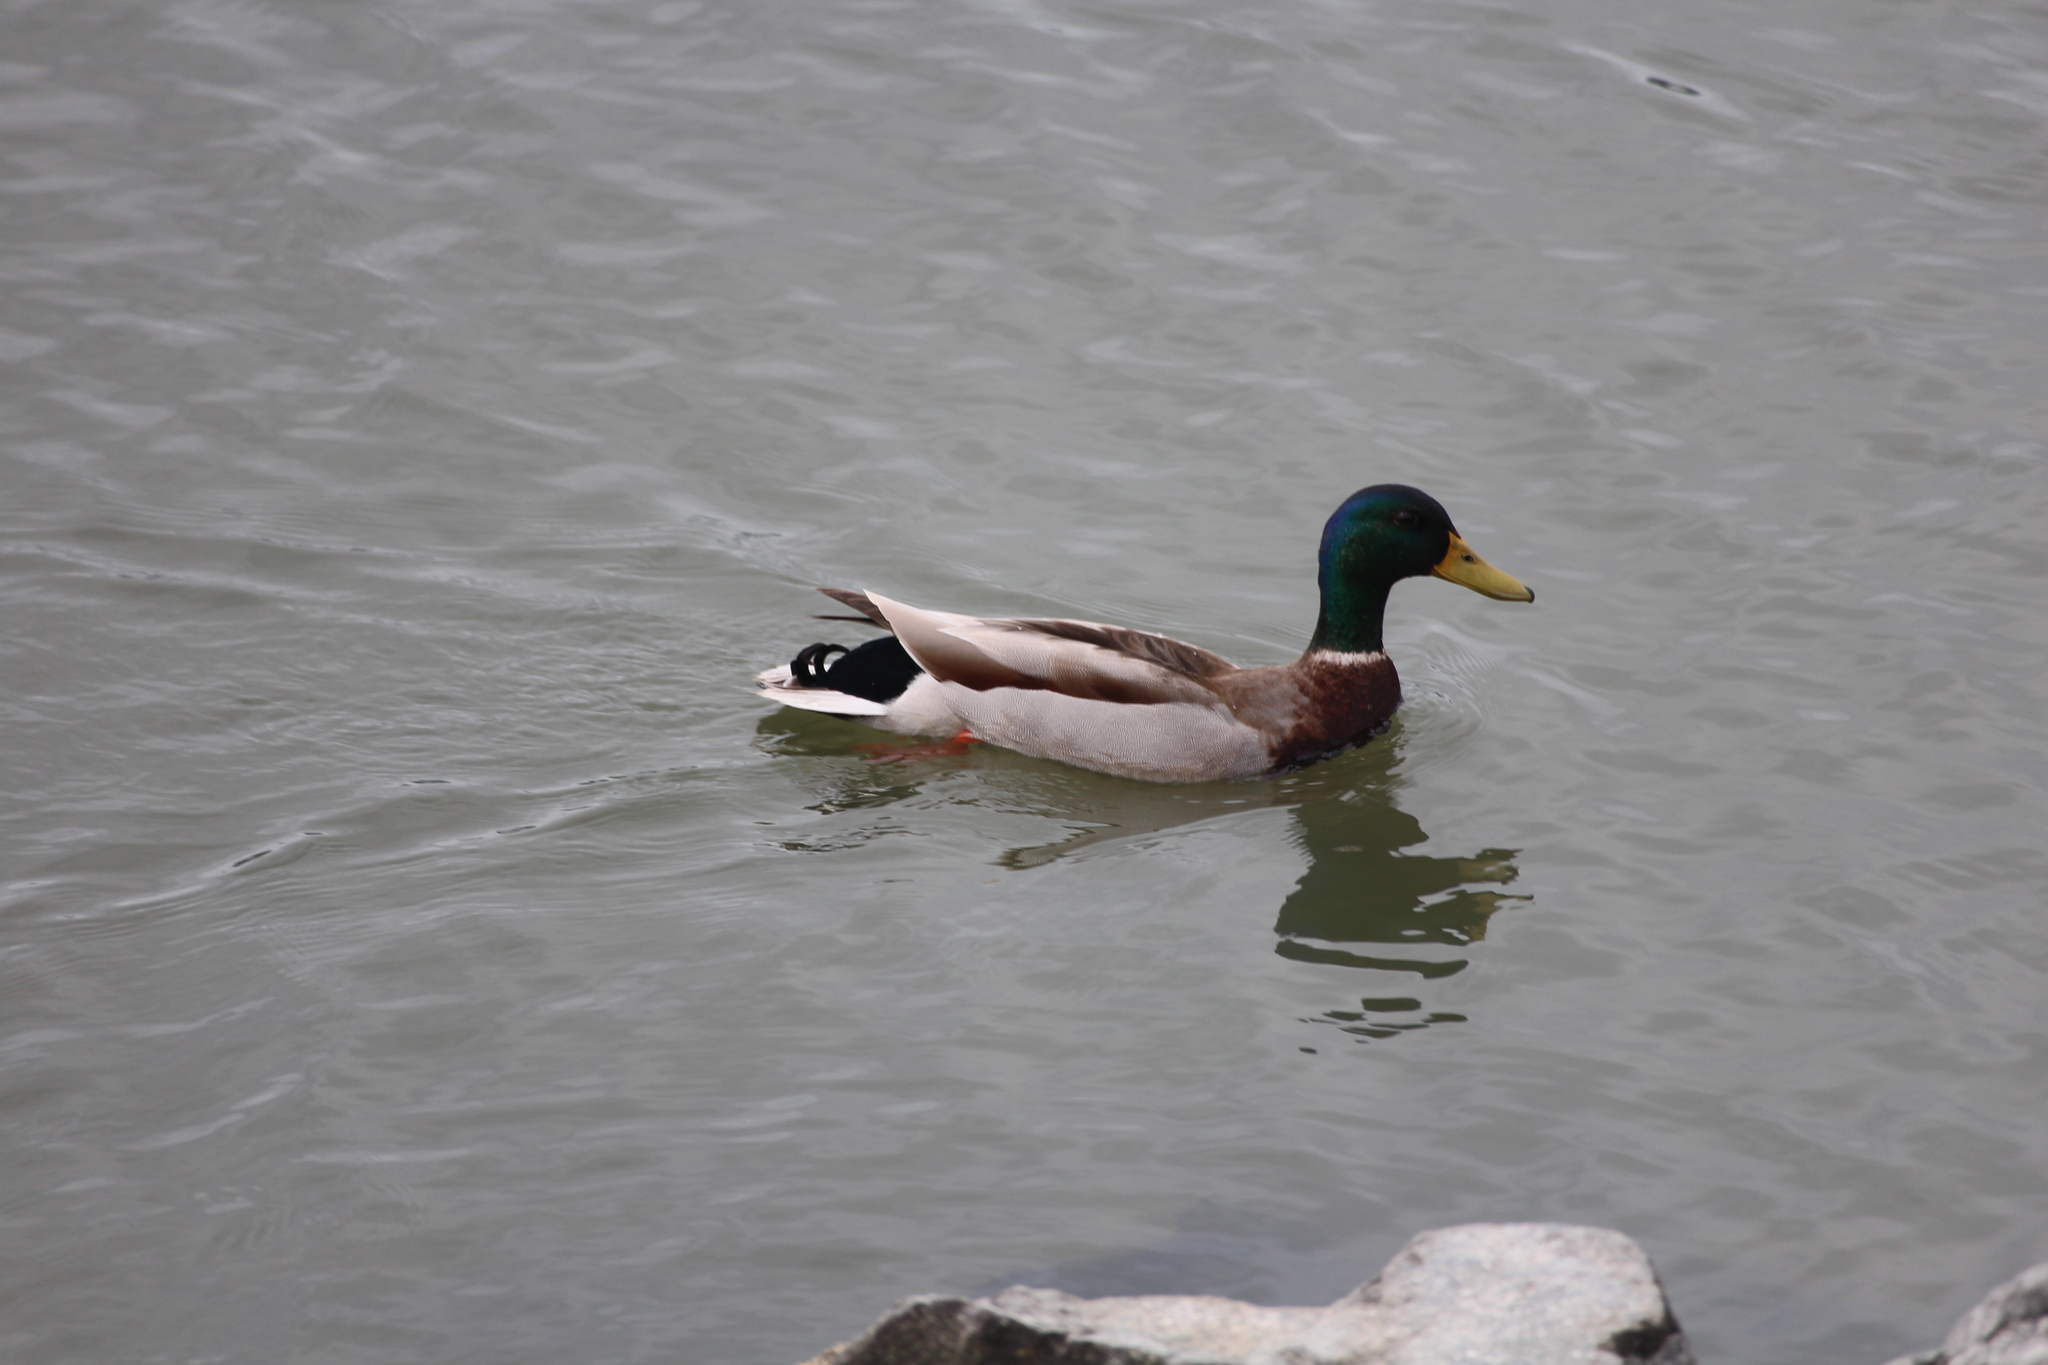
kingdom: Animalia
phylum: Chordata
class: Aves
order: Anseriformes
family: Anatidae
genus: Anas
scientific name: Anas platyrhynchos
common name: Mallard
